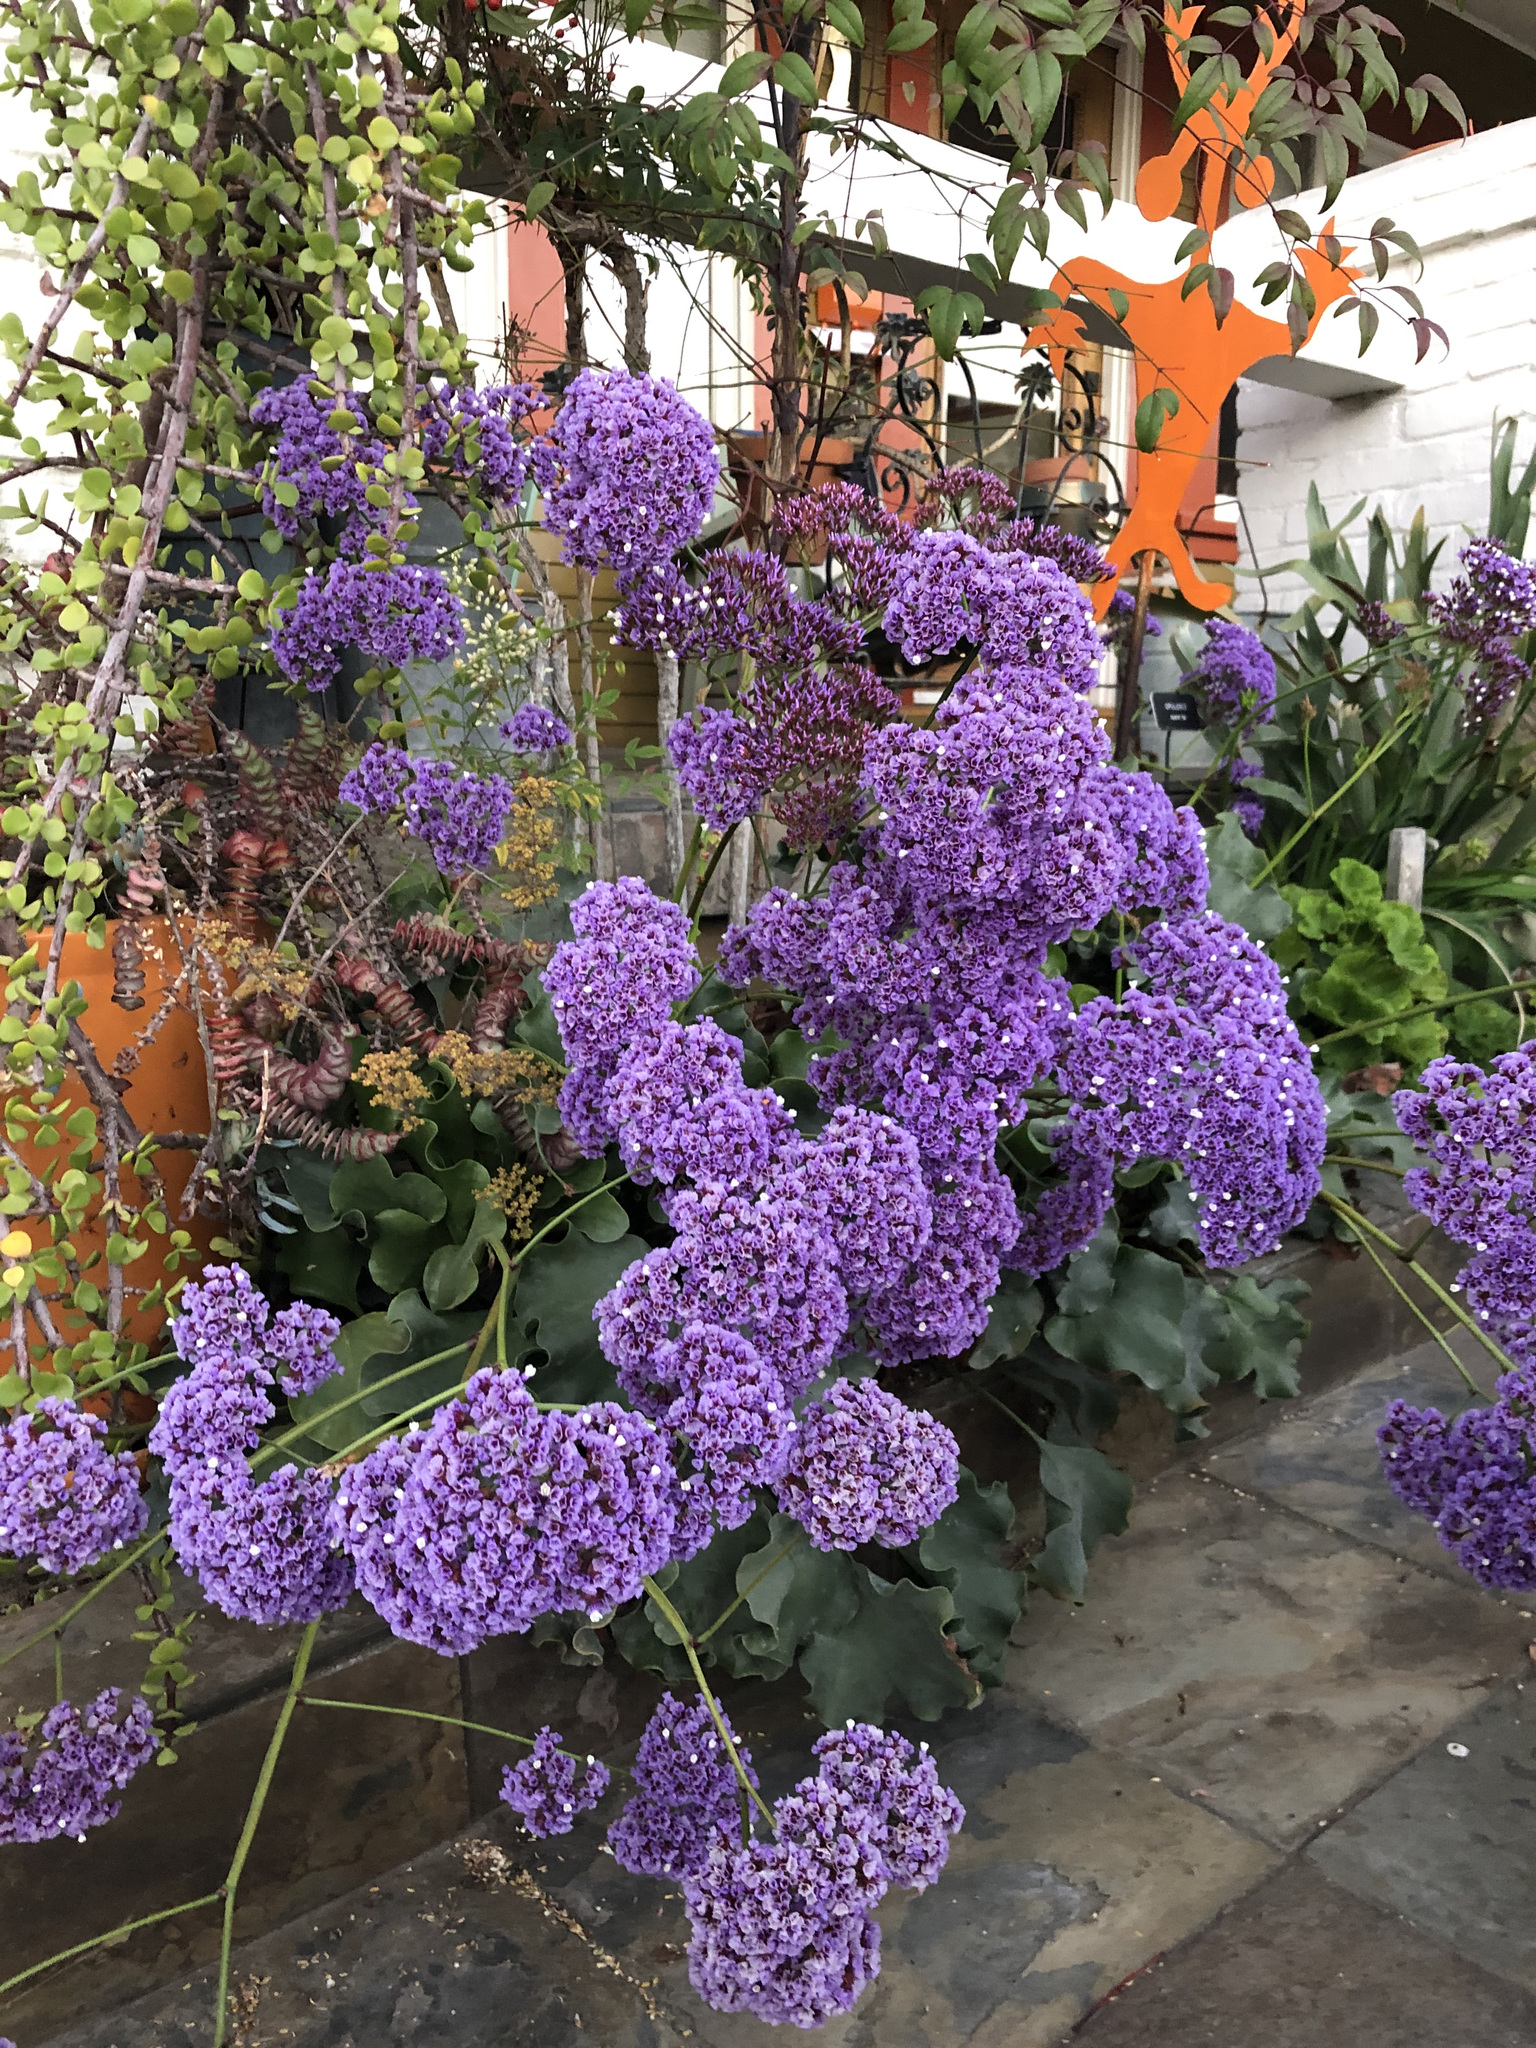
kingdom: Plantae
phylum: Tracheophyta
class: Magnoliopsida
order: Caryophyllales
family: Plumbaginaceae
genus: Limonium
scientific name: Limonium perezii
